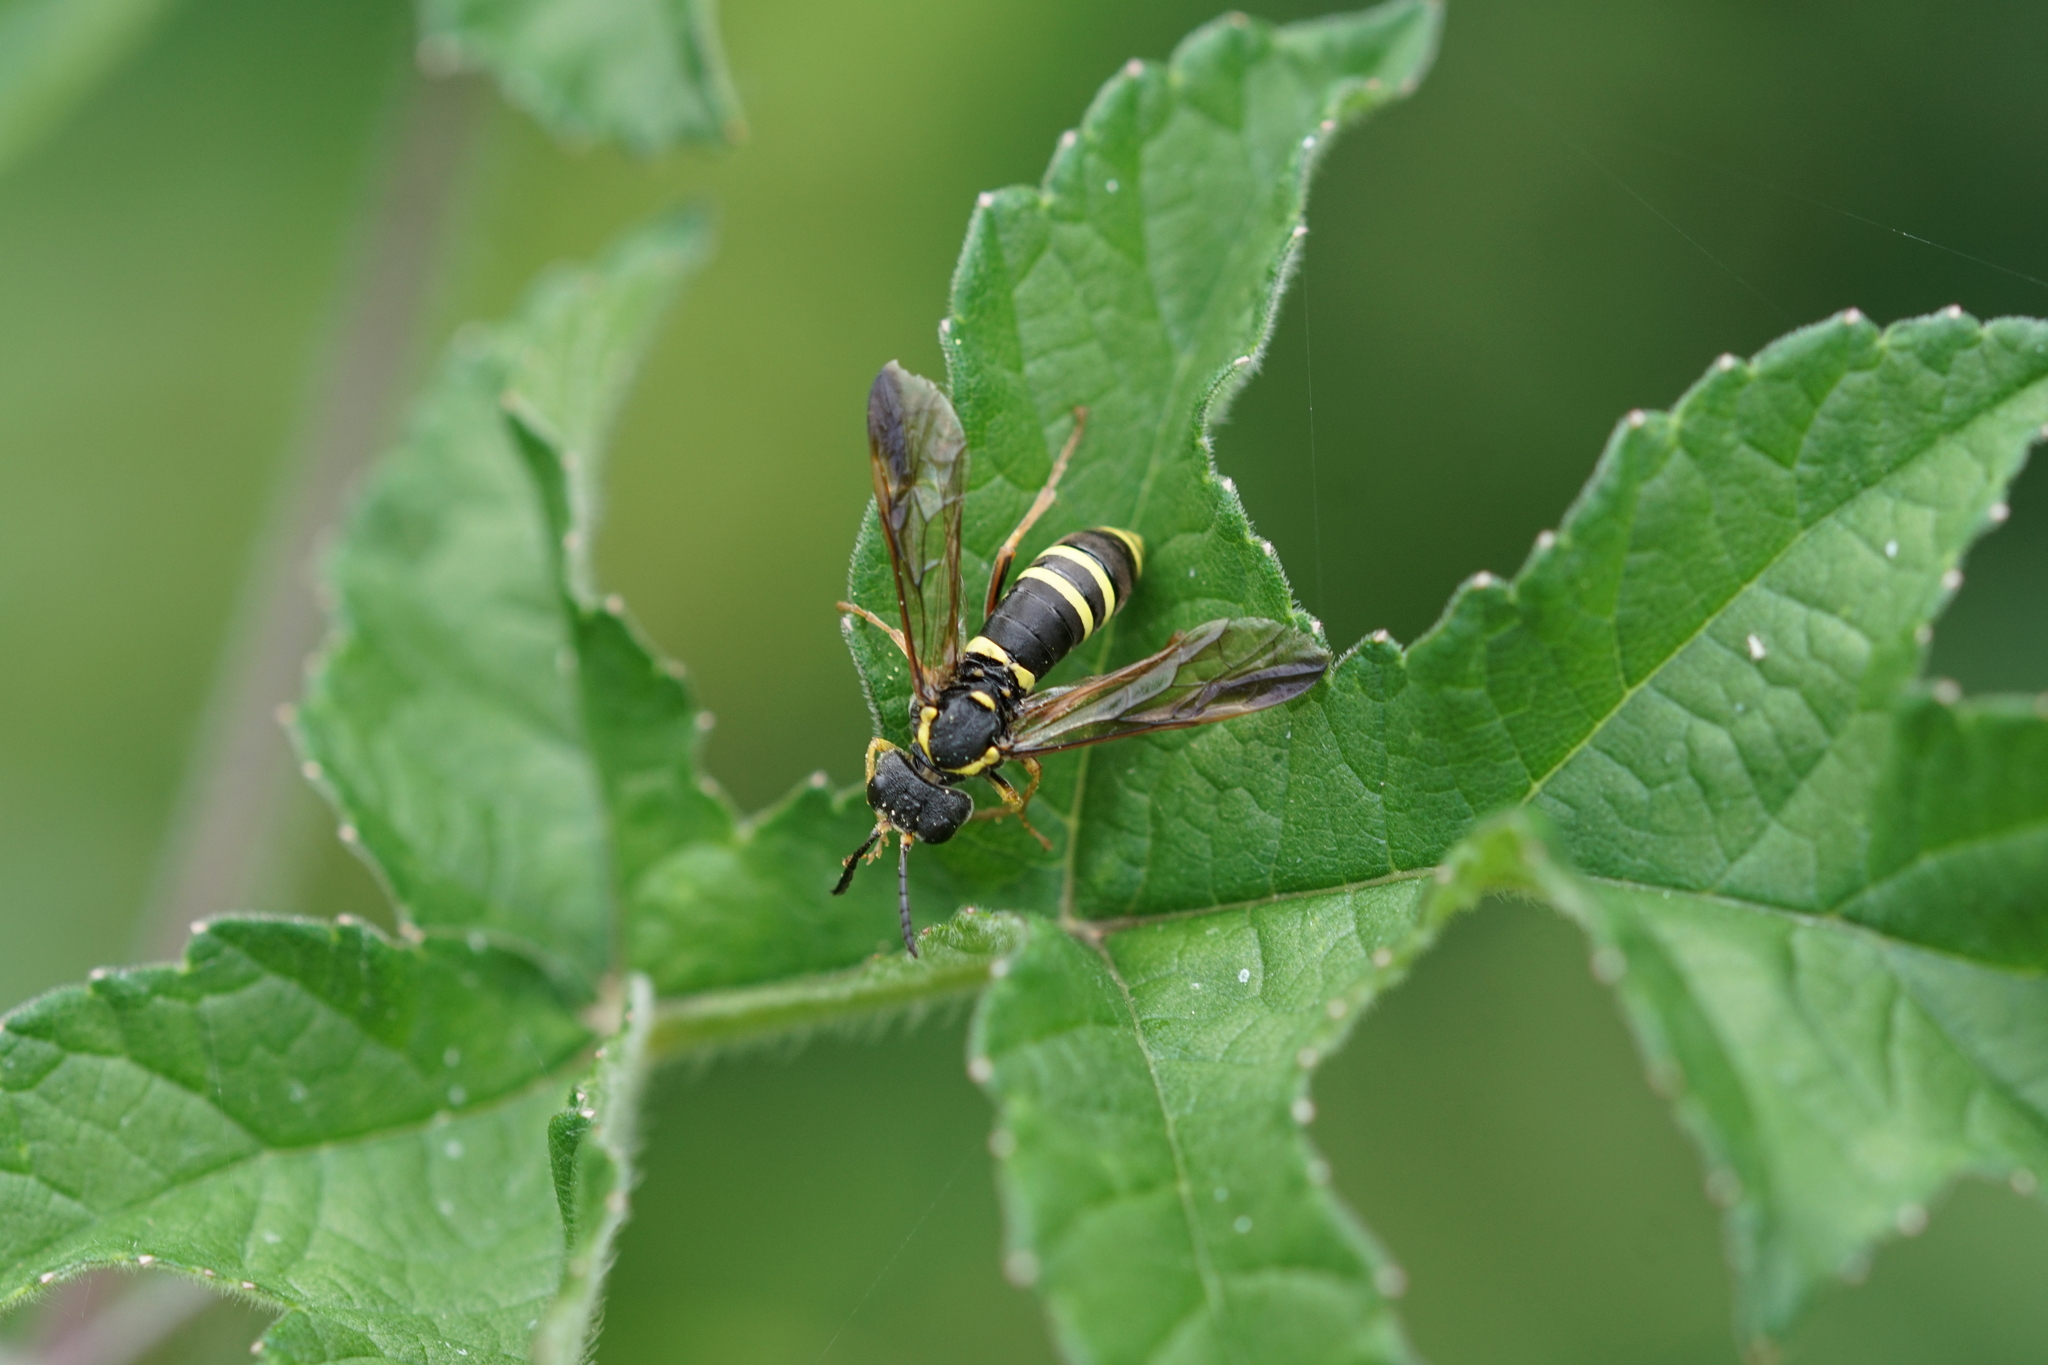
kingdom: Animalia
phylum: Arthropoda
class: Insecta
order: Hymenoptera
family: Tenthredinidae
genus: Tenthredo
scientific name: Tenthredo vespa
